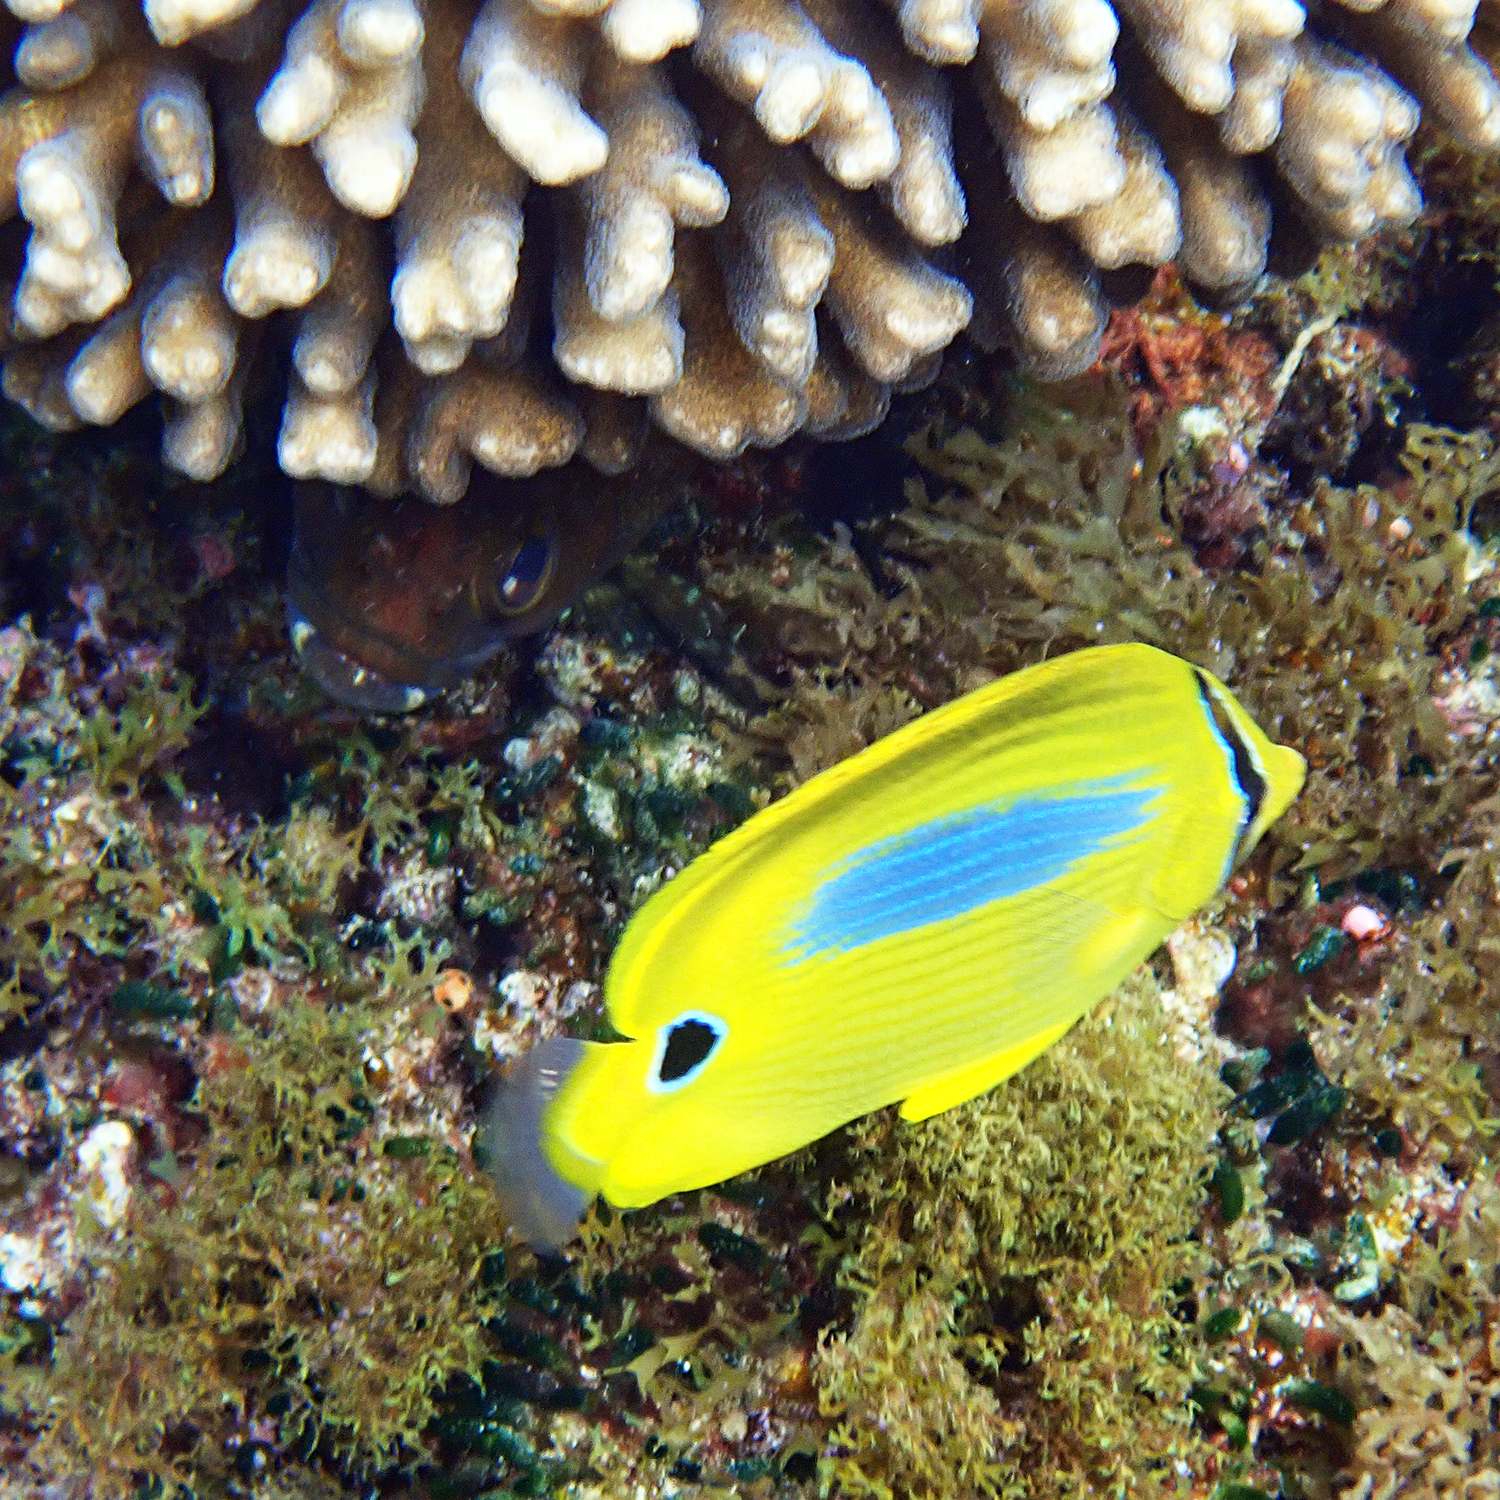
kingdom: Animalia
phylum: Chordata
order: Perciformes
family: Chaetodontidae
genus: Chaetodon
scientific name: Chaetodon plebeius
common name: Bluespot butterflyfish
